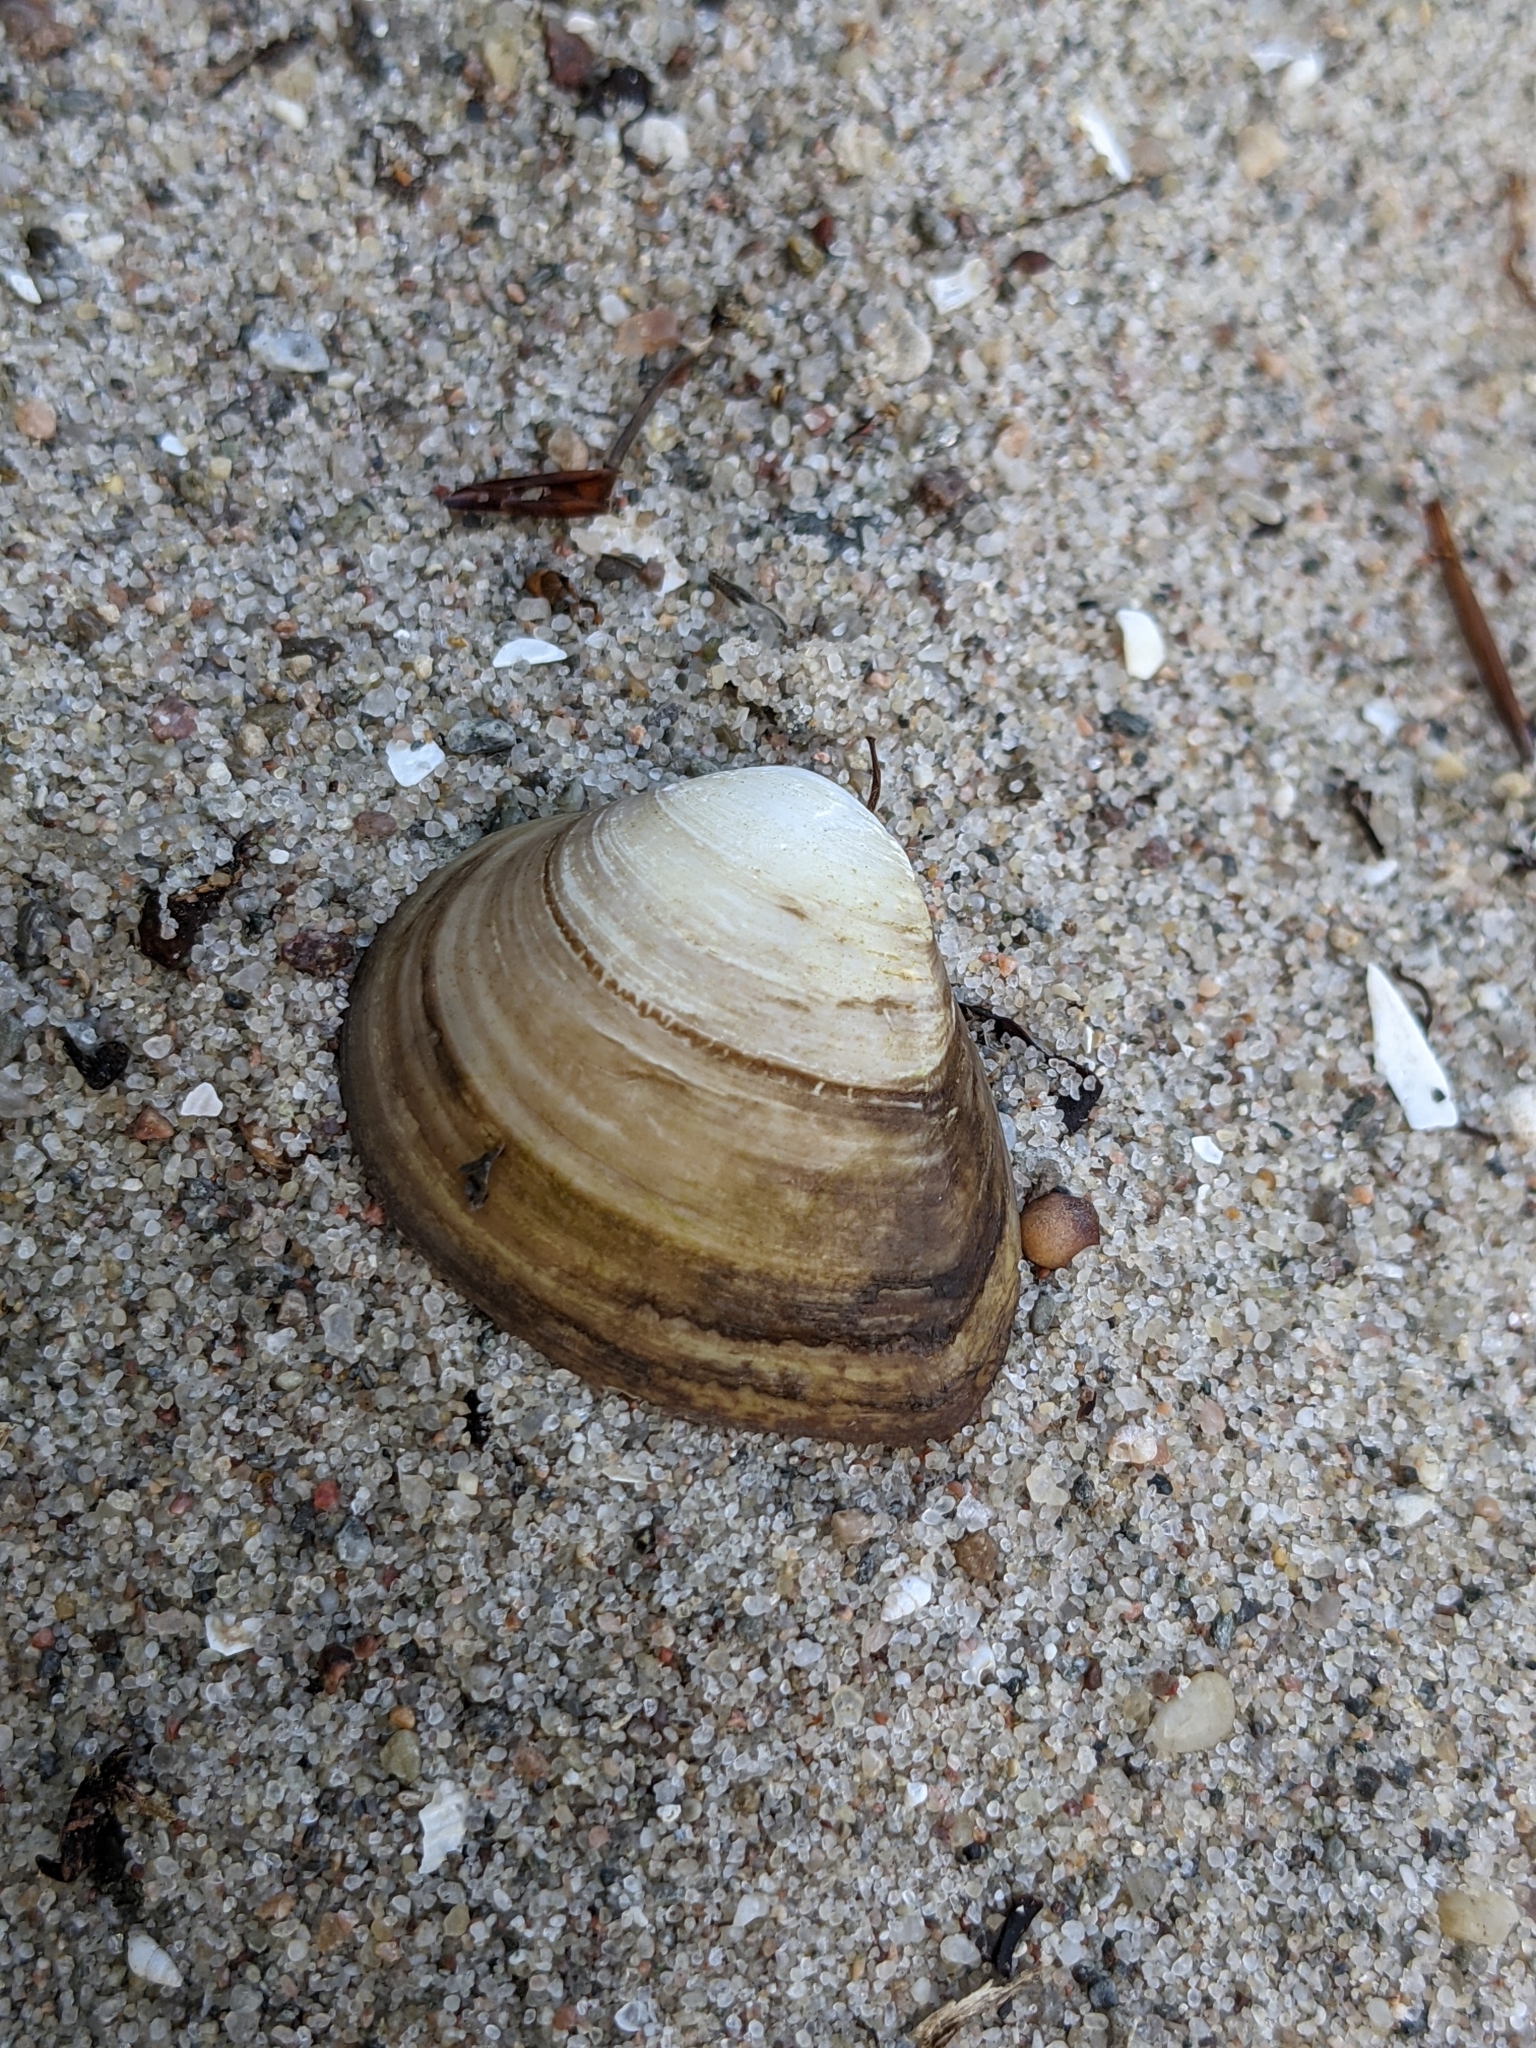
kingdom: Animalia
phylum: Mollusca
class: Bivalvia
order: Venerida
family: Mactridae
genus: Rangia
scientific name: Rangia cuneata
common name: Atlantic rangia
